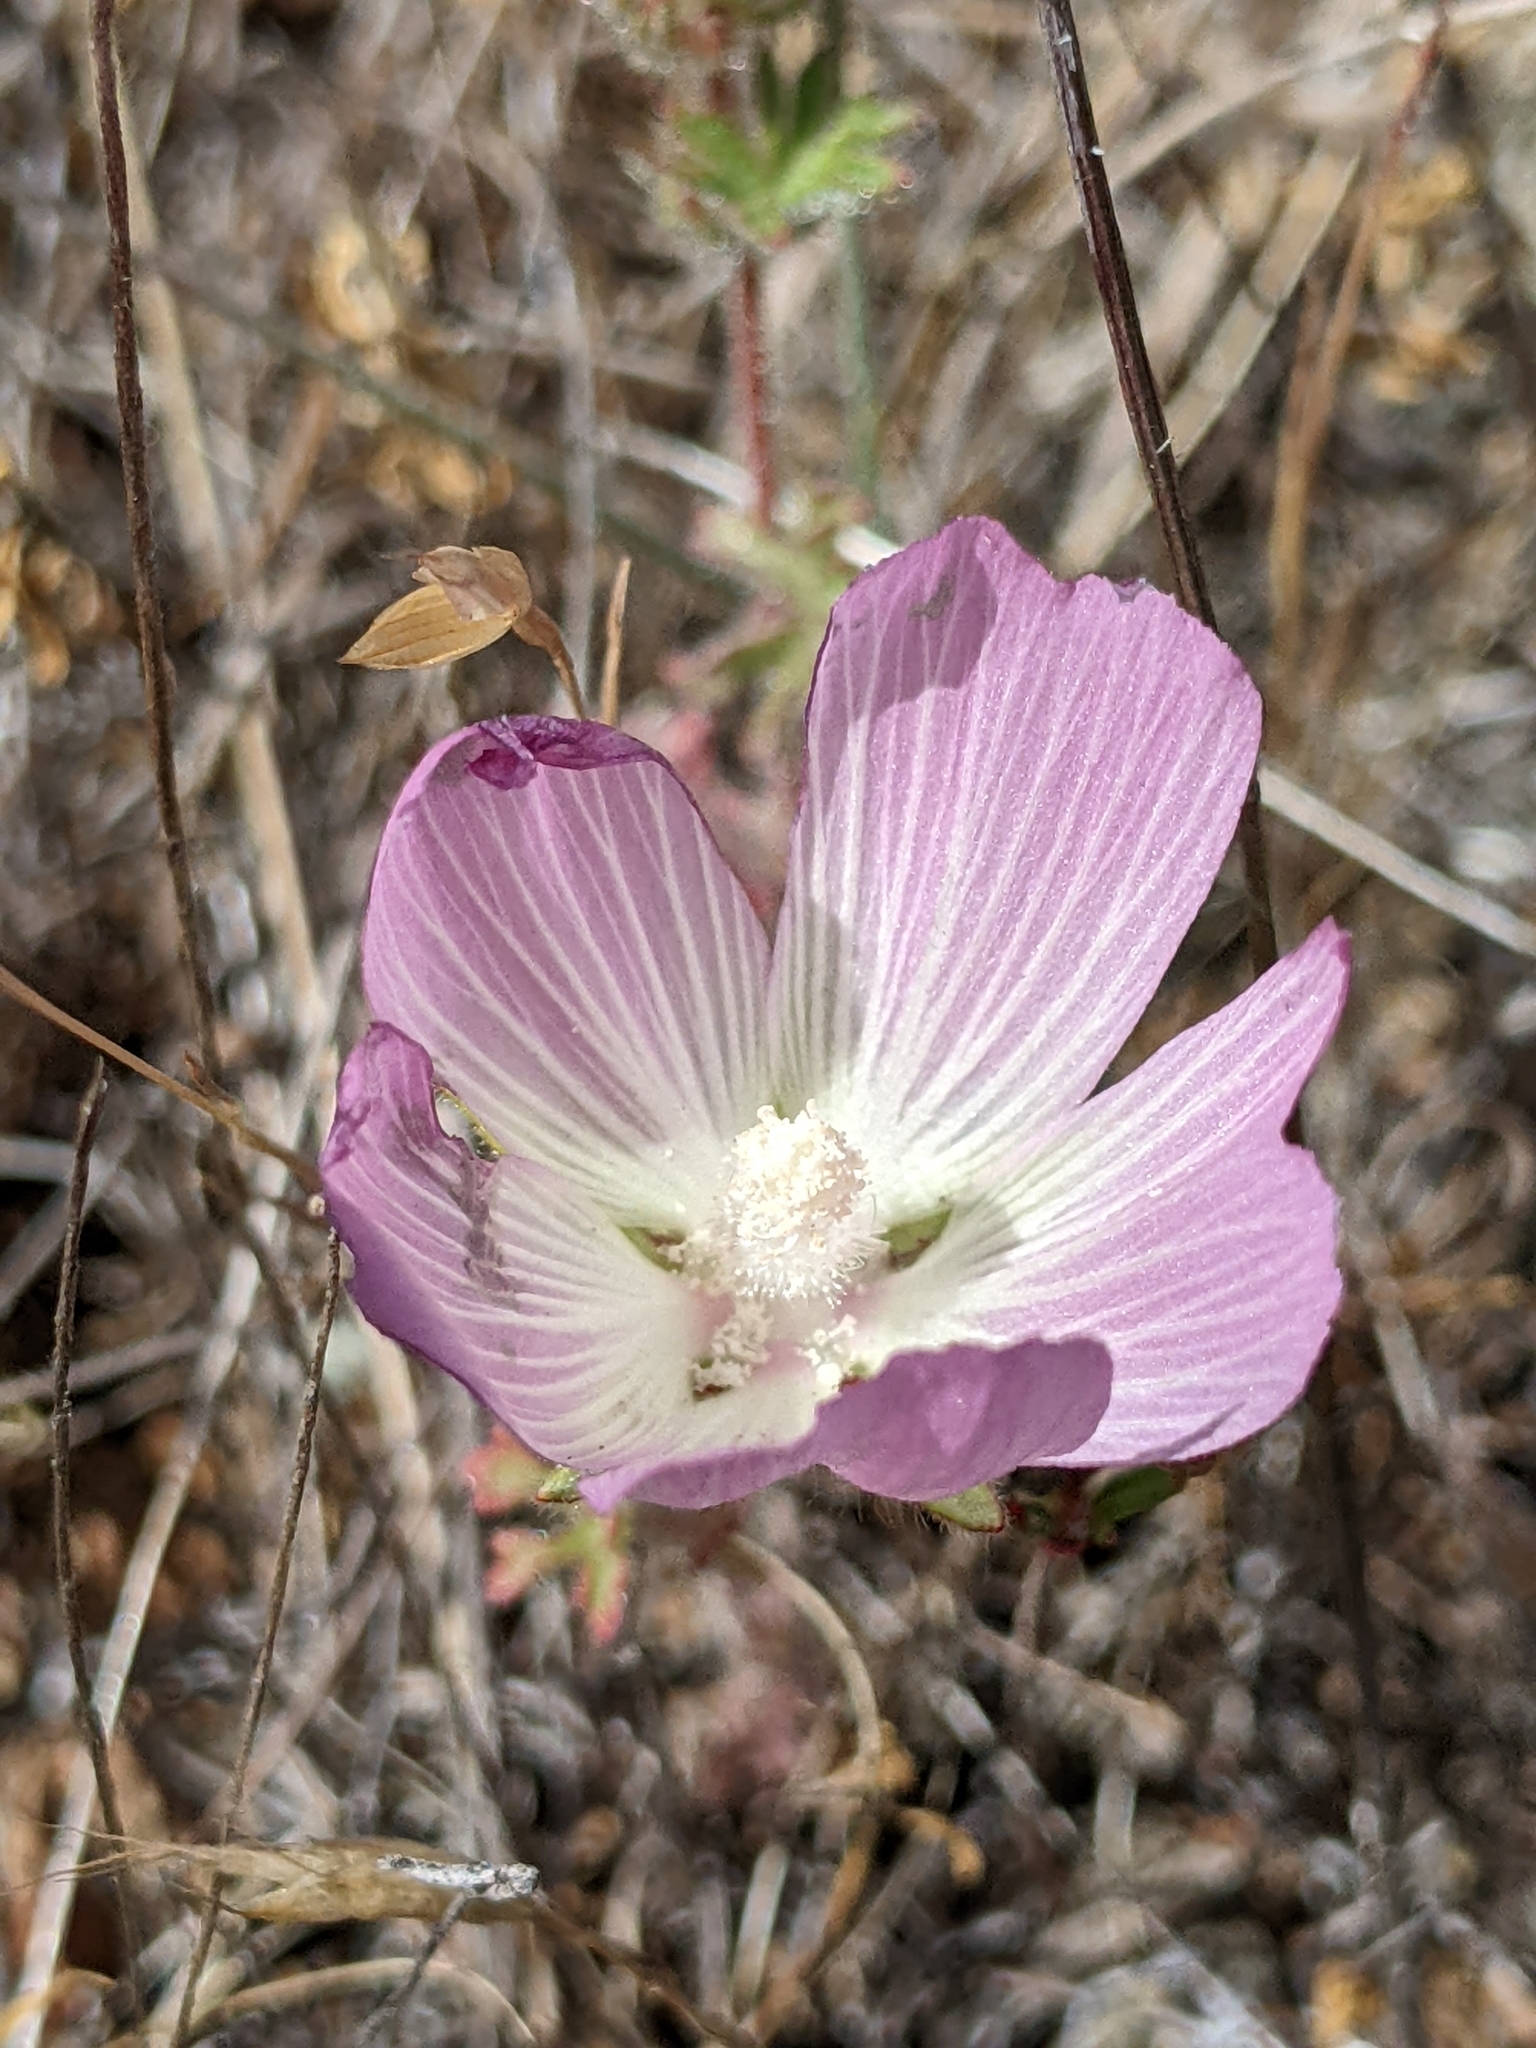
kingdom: Plantae
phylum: Tracheophyta
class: Magnoliopsida
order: Malvales
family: Malvaceae
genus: Sidalcea
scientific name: Sidalcea diploscypha
